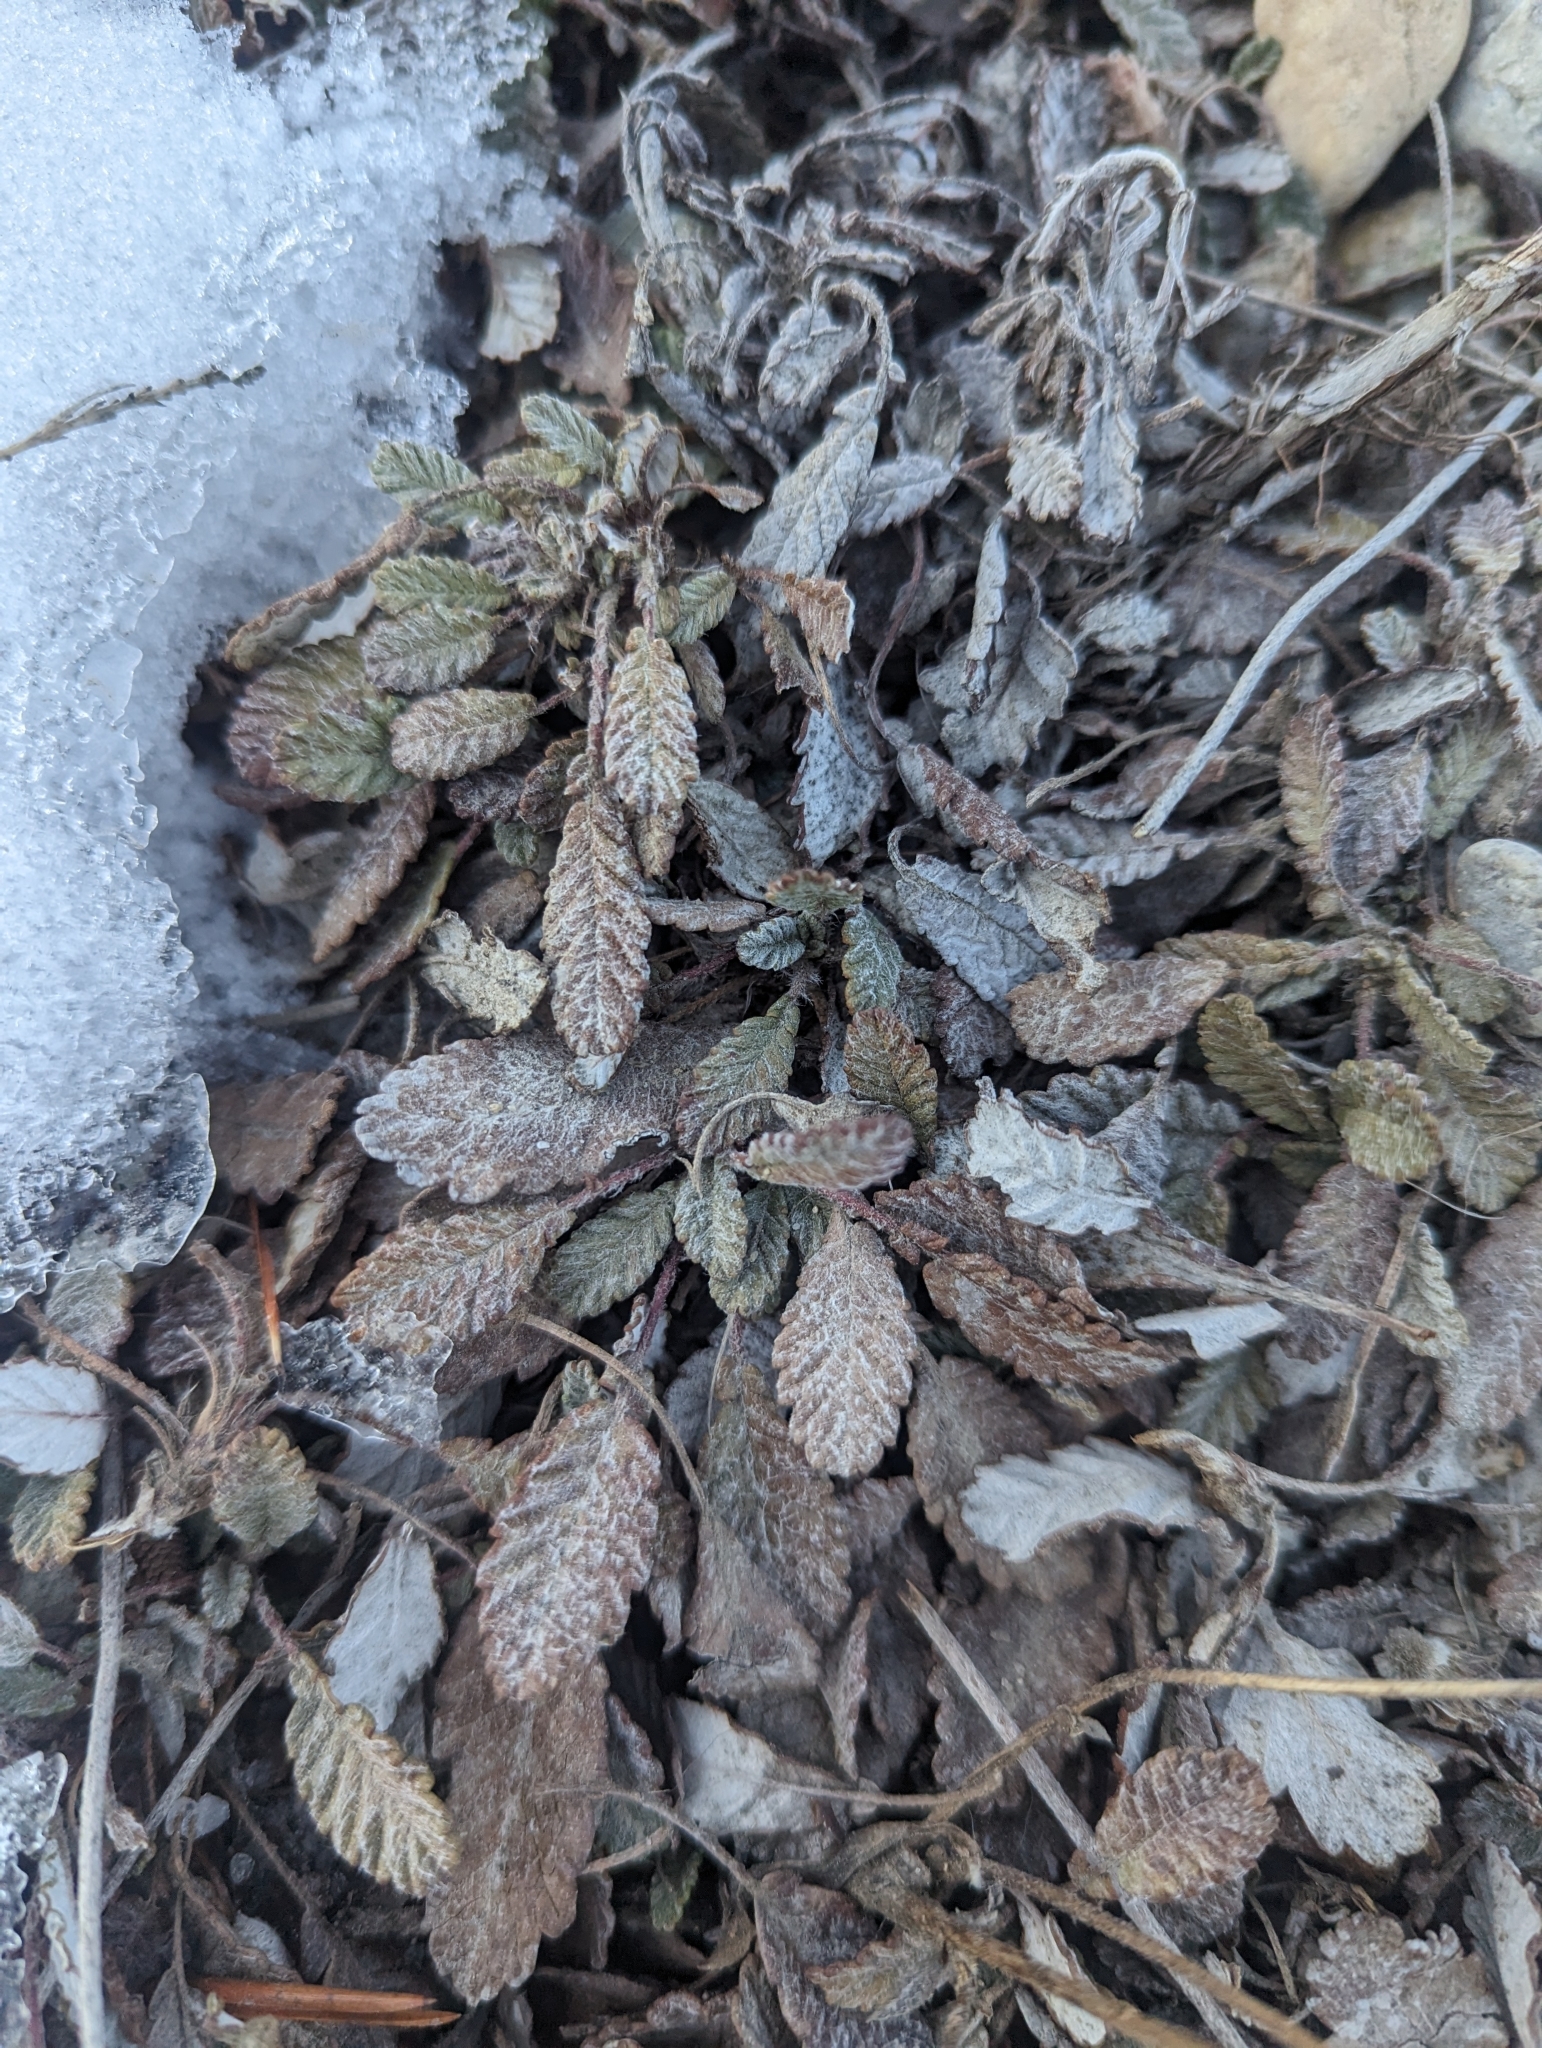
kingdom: Plantae
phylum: Tracheophyta
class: Magnoliopsida
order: Rosales
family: Rosaceae
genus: Dryas
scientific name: Dryas drummondii
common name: Drummond's dryad
